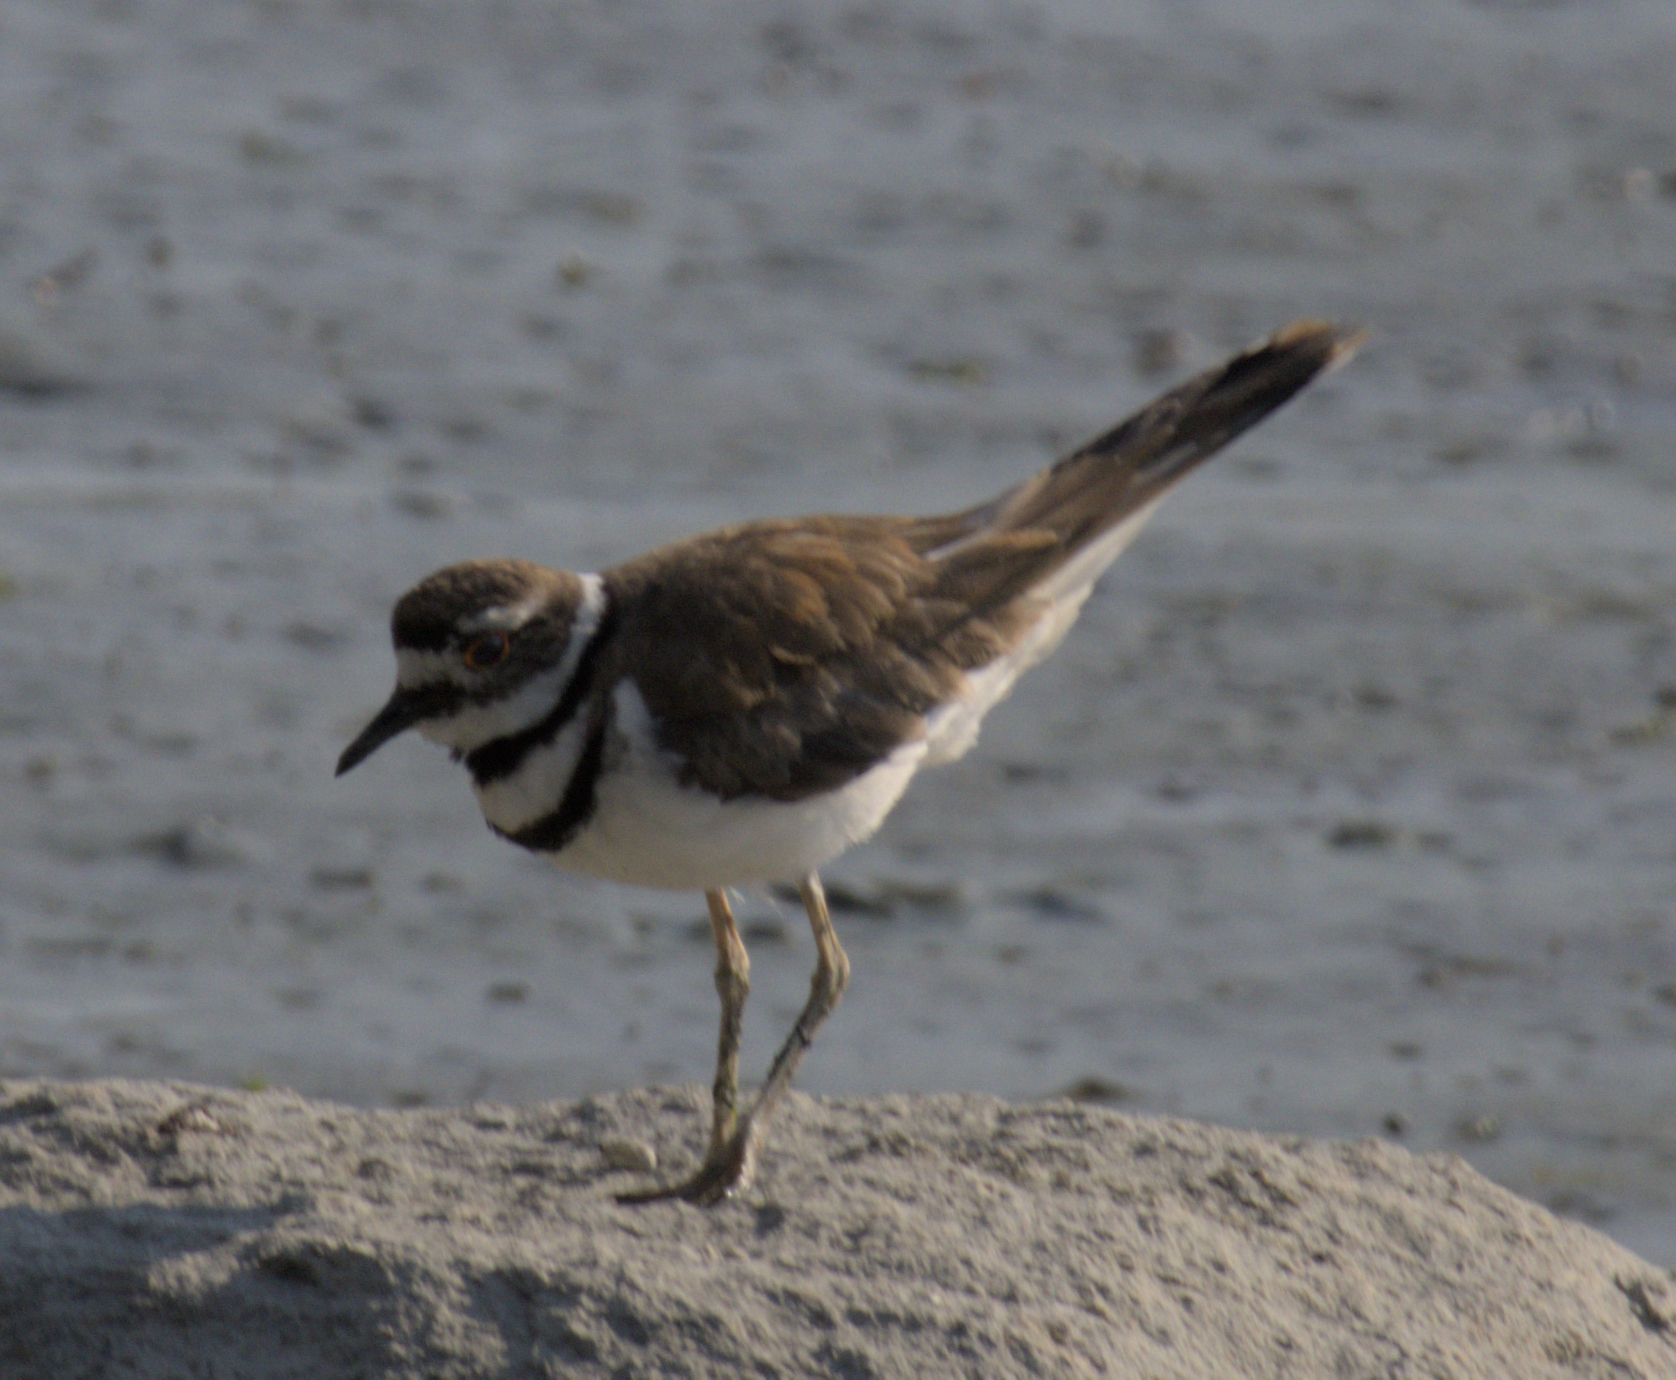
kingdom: Animalia
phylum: Chordata
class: Aves
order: Charadriiformes
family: Charadriidae
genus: Charadrius
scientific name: Charadrius vociferus
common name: Killdeer
